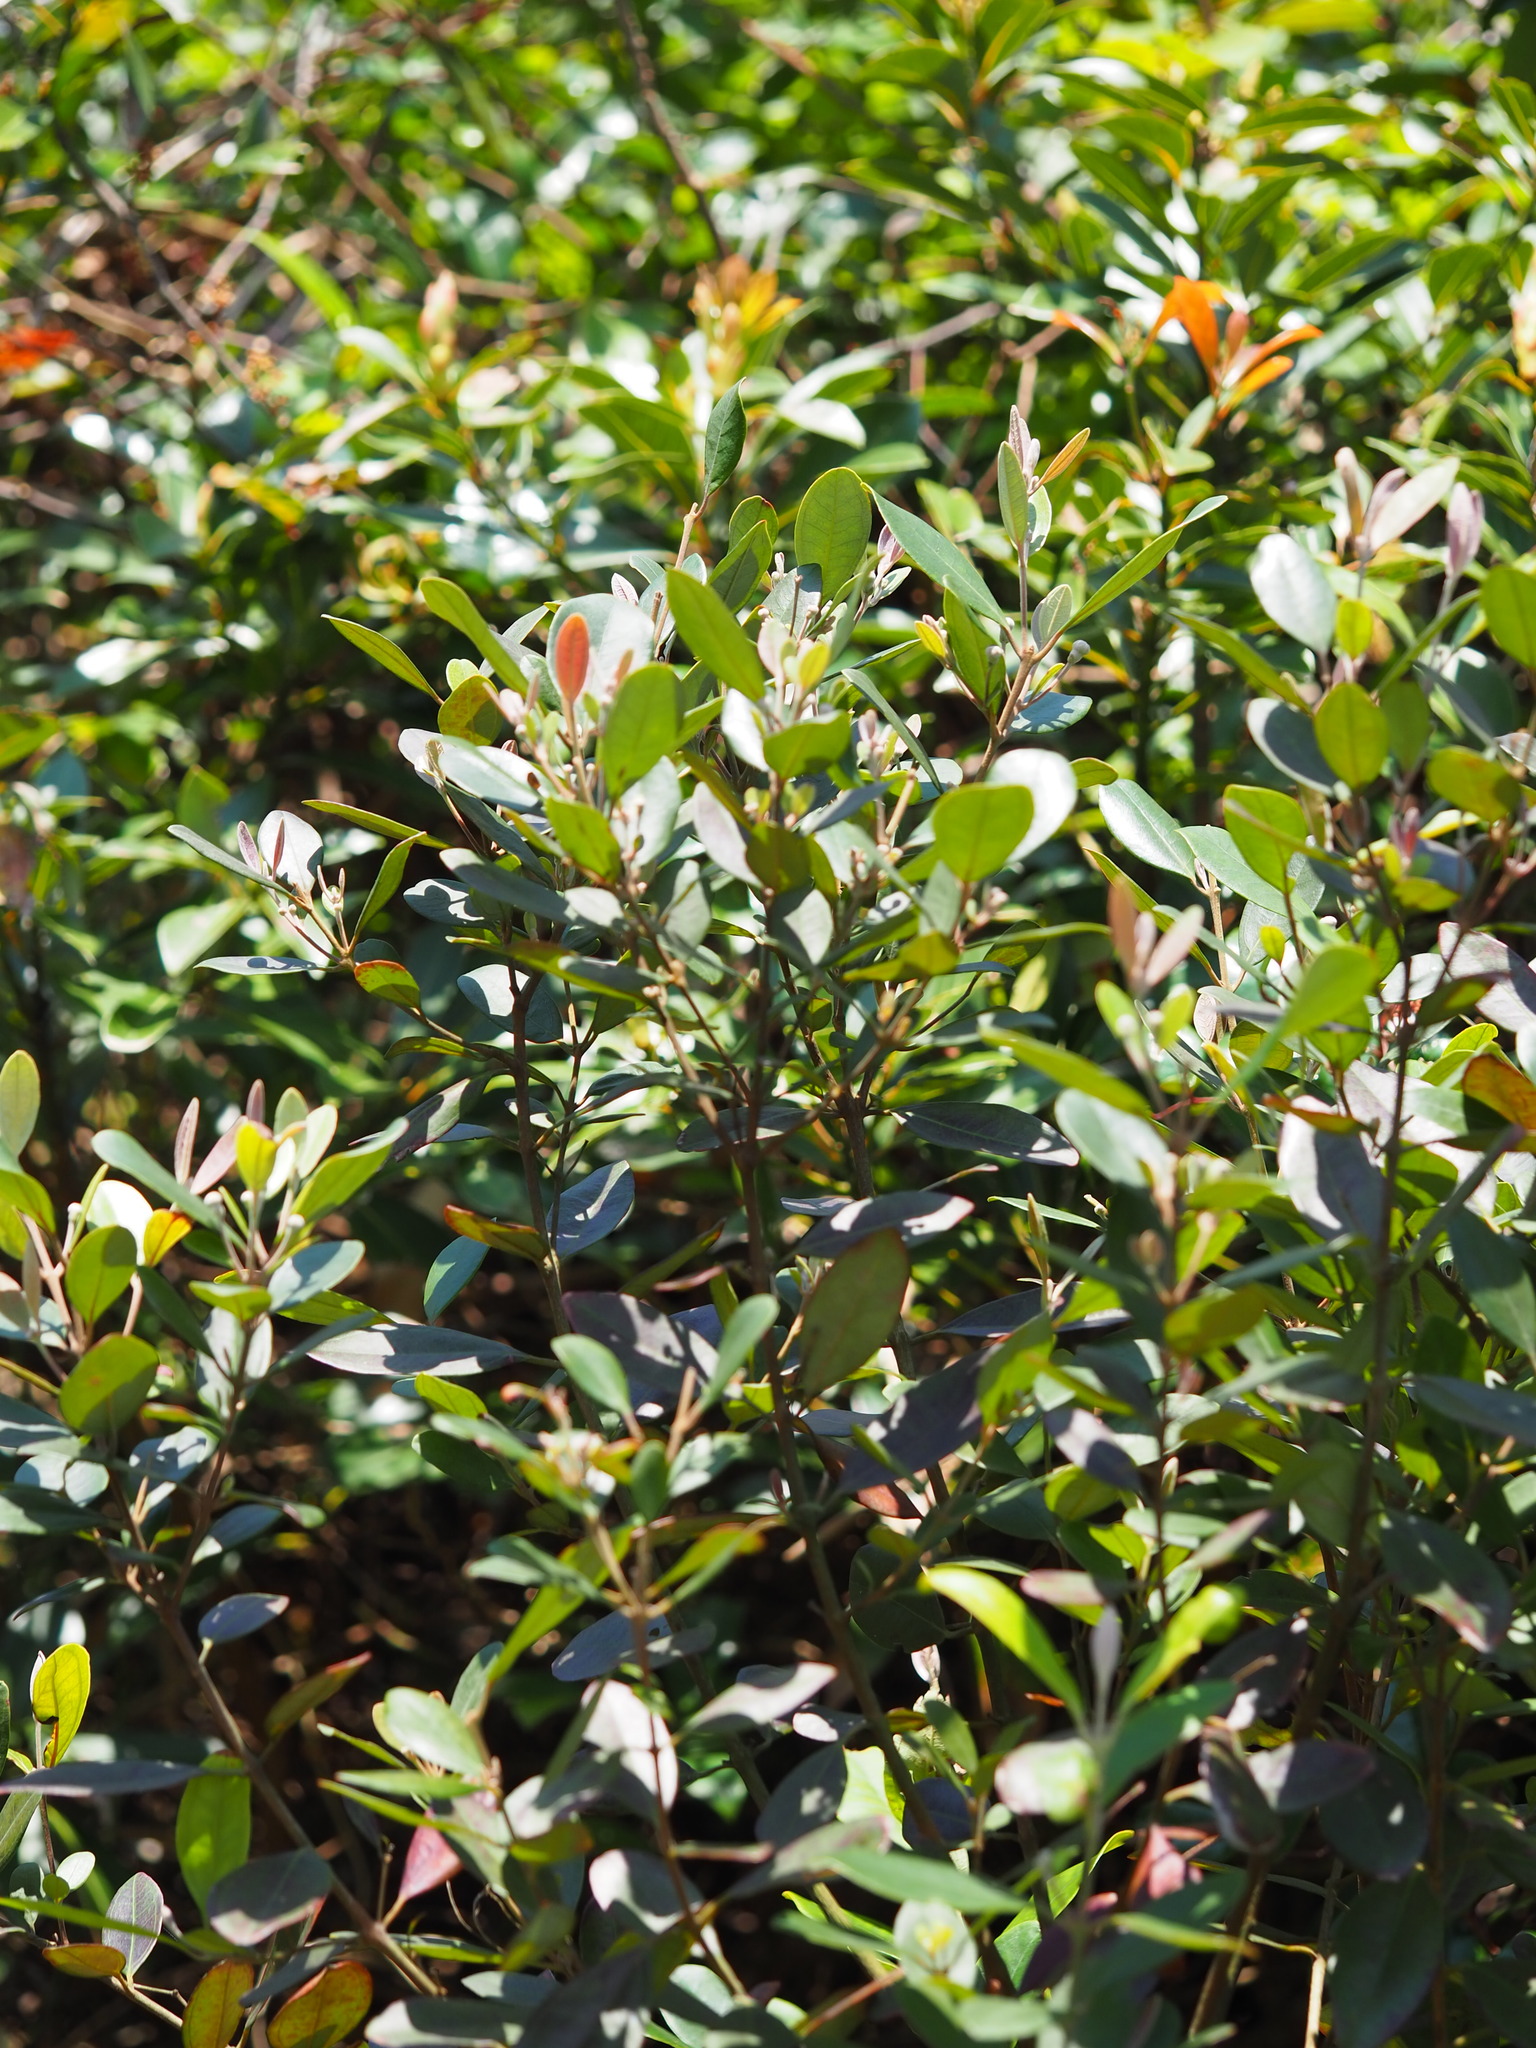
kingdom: Plantae
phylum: Tracheophyta
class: Magnoliopsida
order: Myrtales
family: Myrtaceae
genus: Rhodomyrtus
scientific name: Rhodomyrtus tomentosa
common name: Rose myrtle
